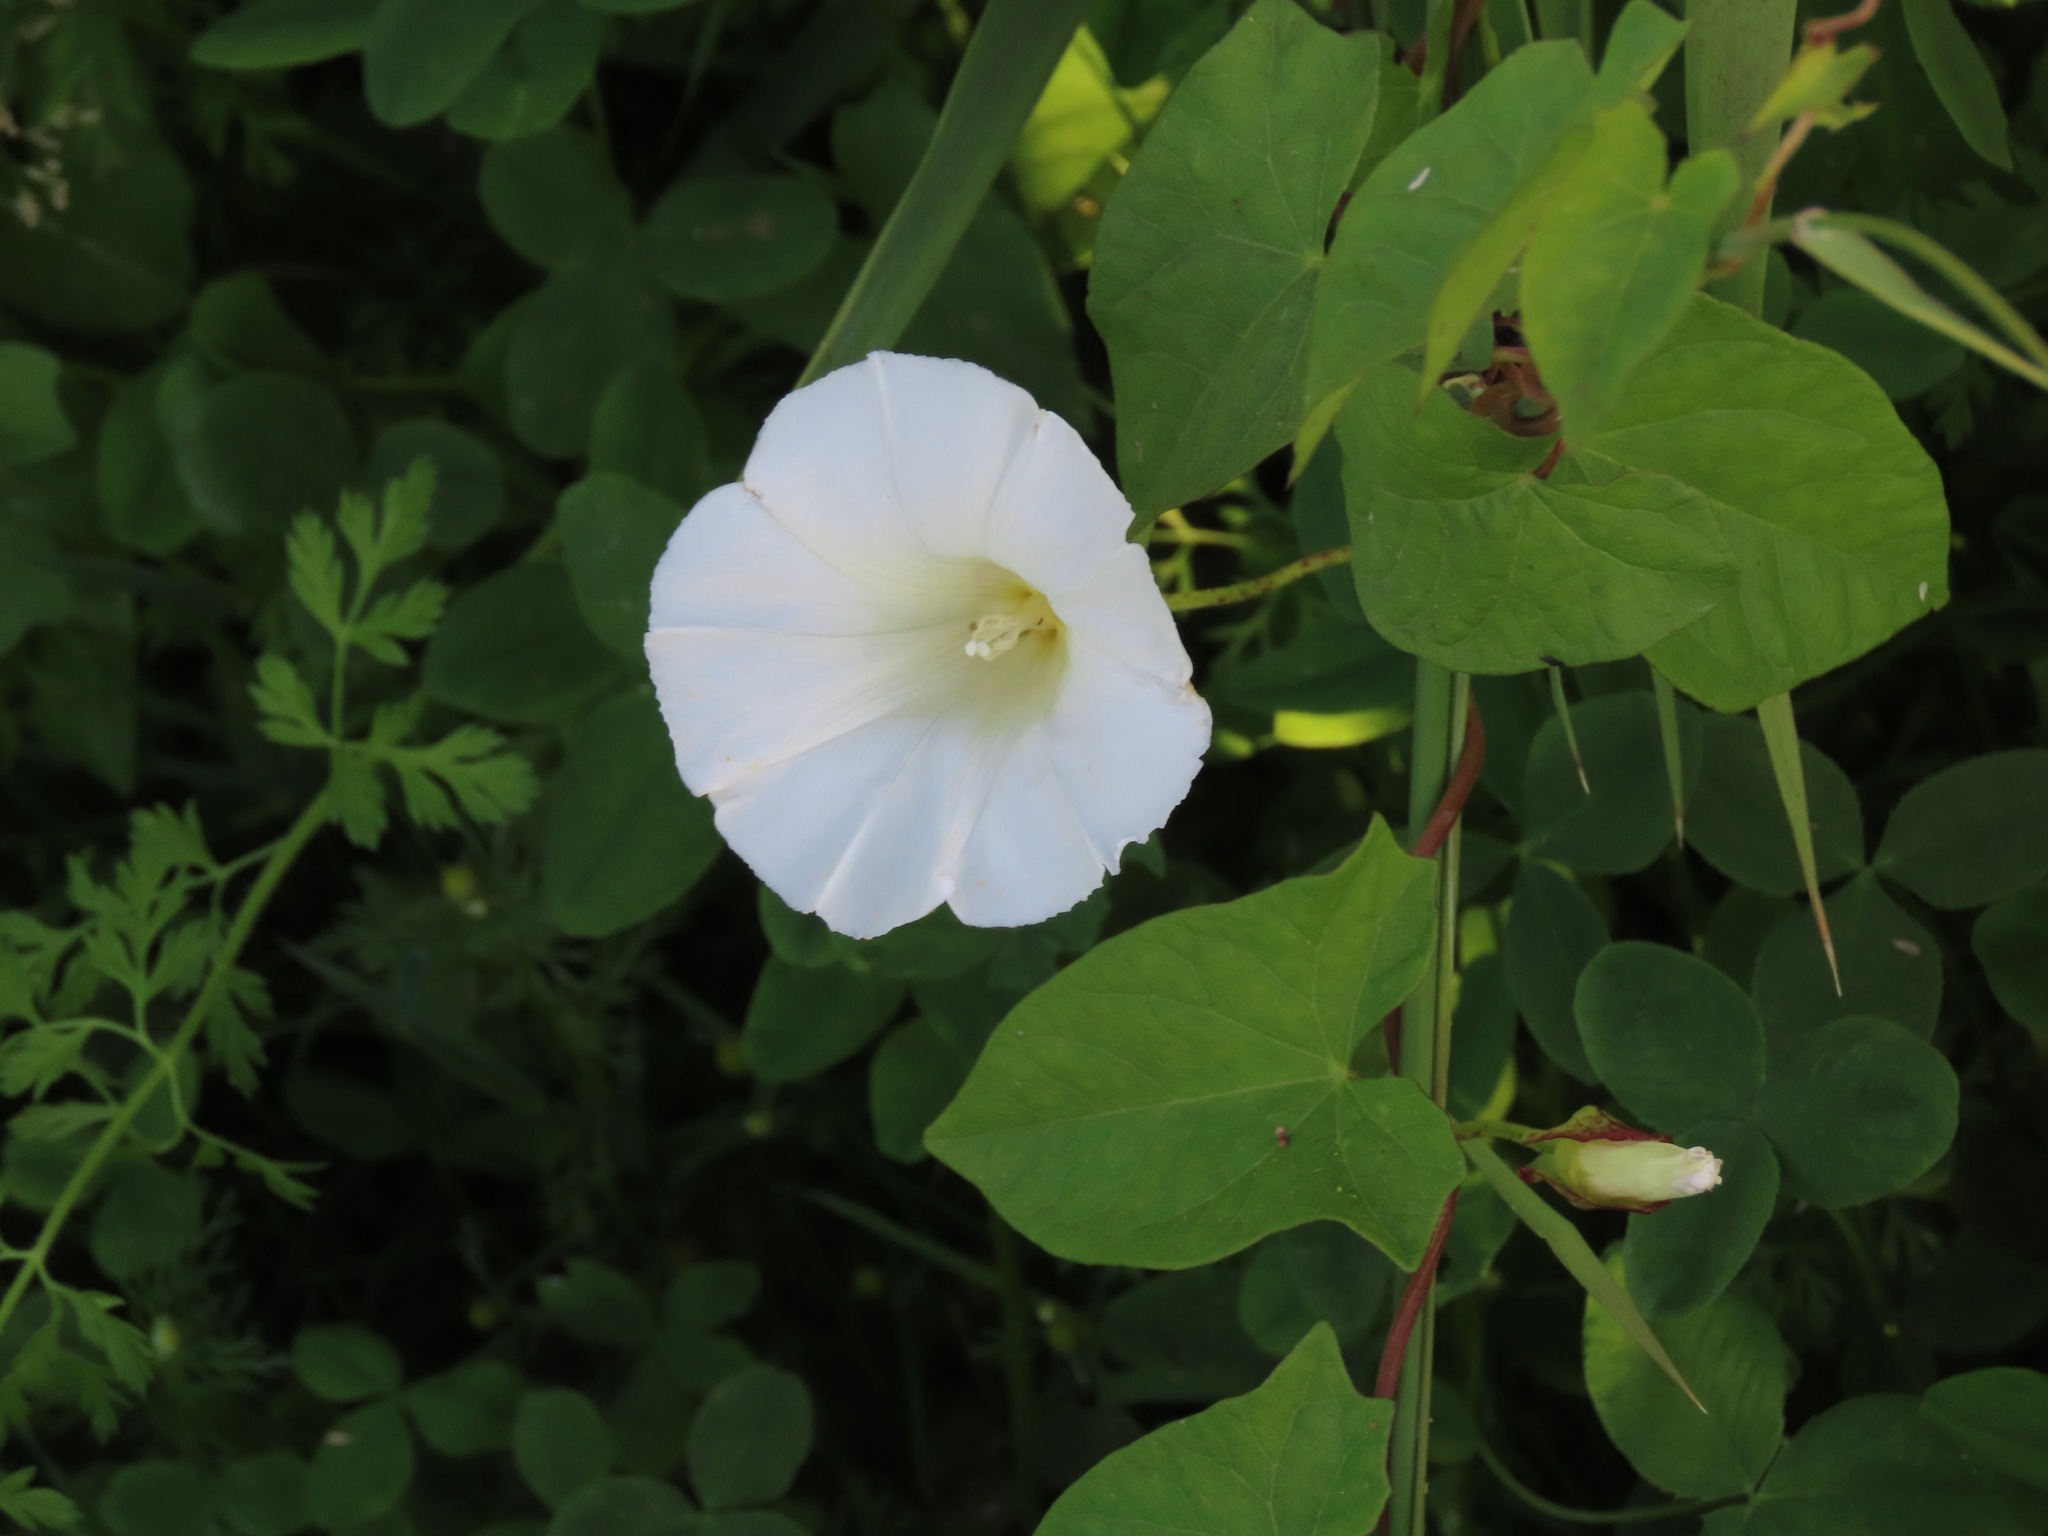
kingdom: Plantae
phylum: Tracheophyta
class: Magnoliopsida
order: Solanales
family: Convolvulaceae
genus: Calystegia
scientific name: Calystegia sepium
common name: Hedge bindweed
